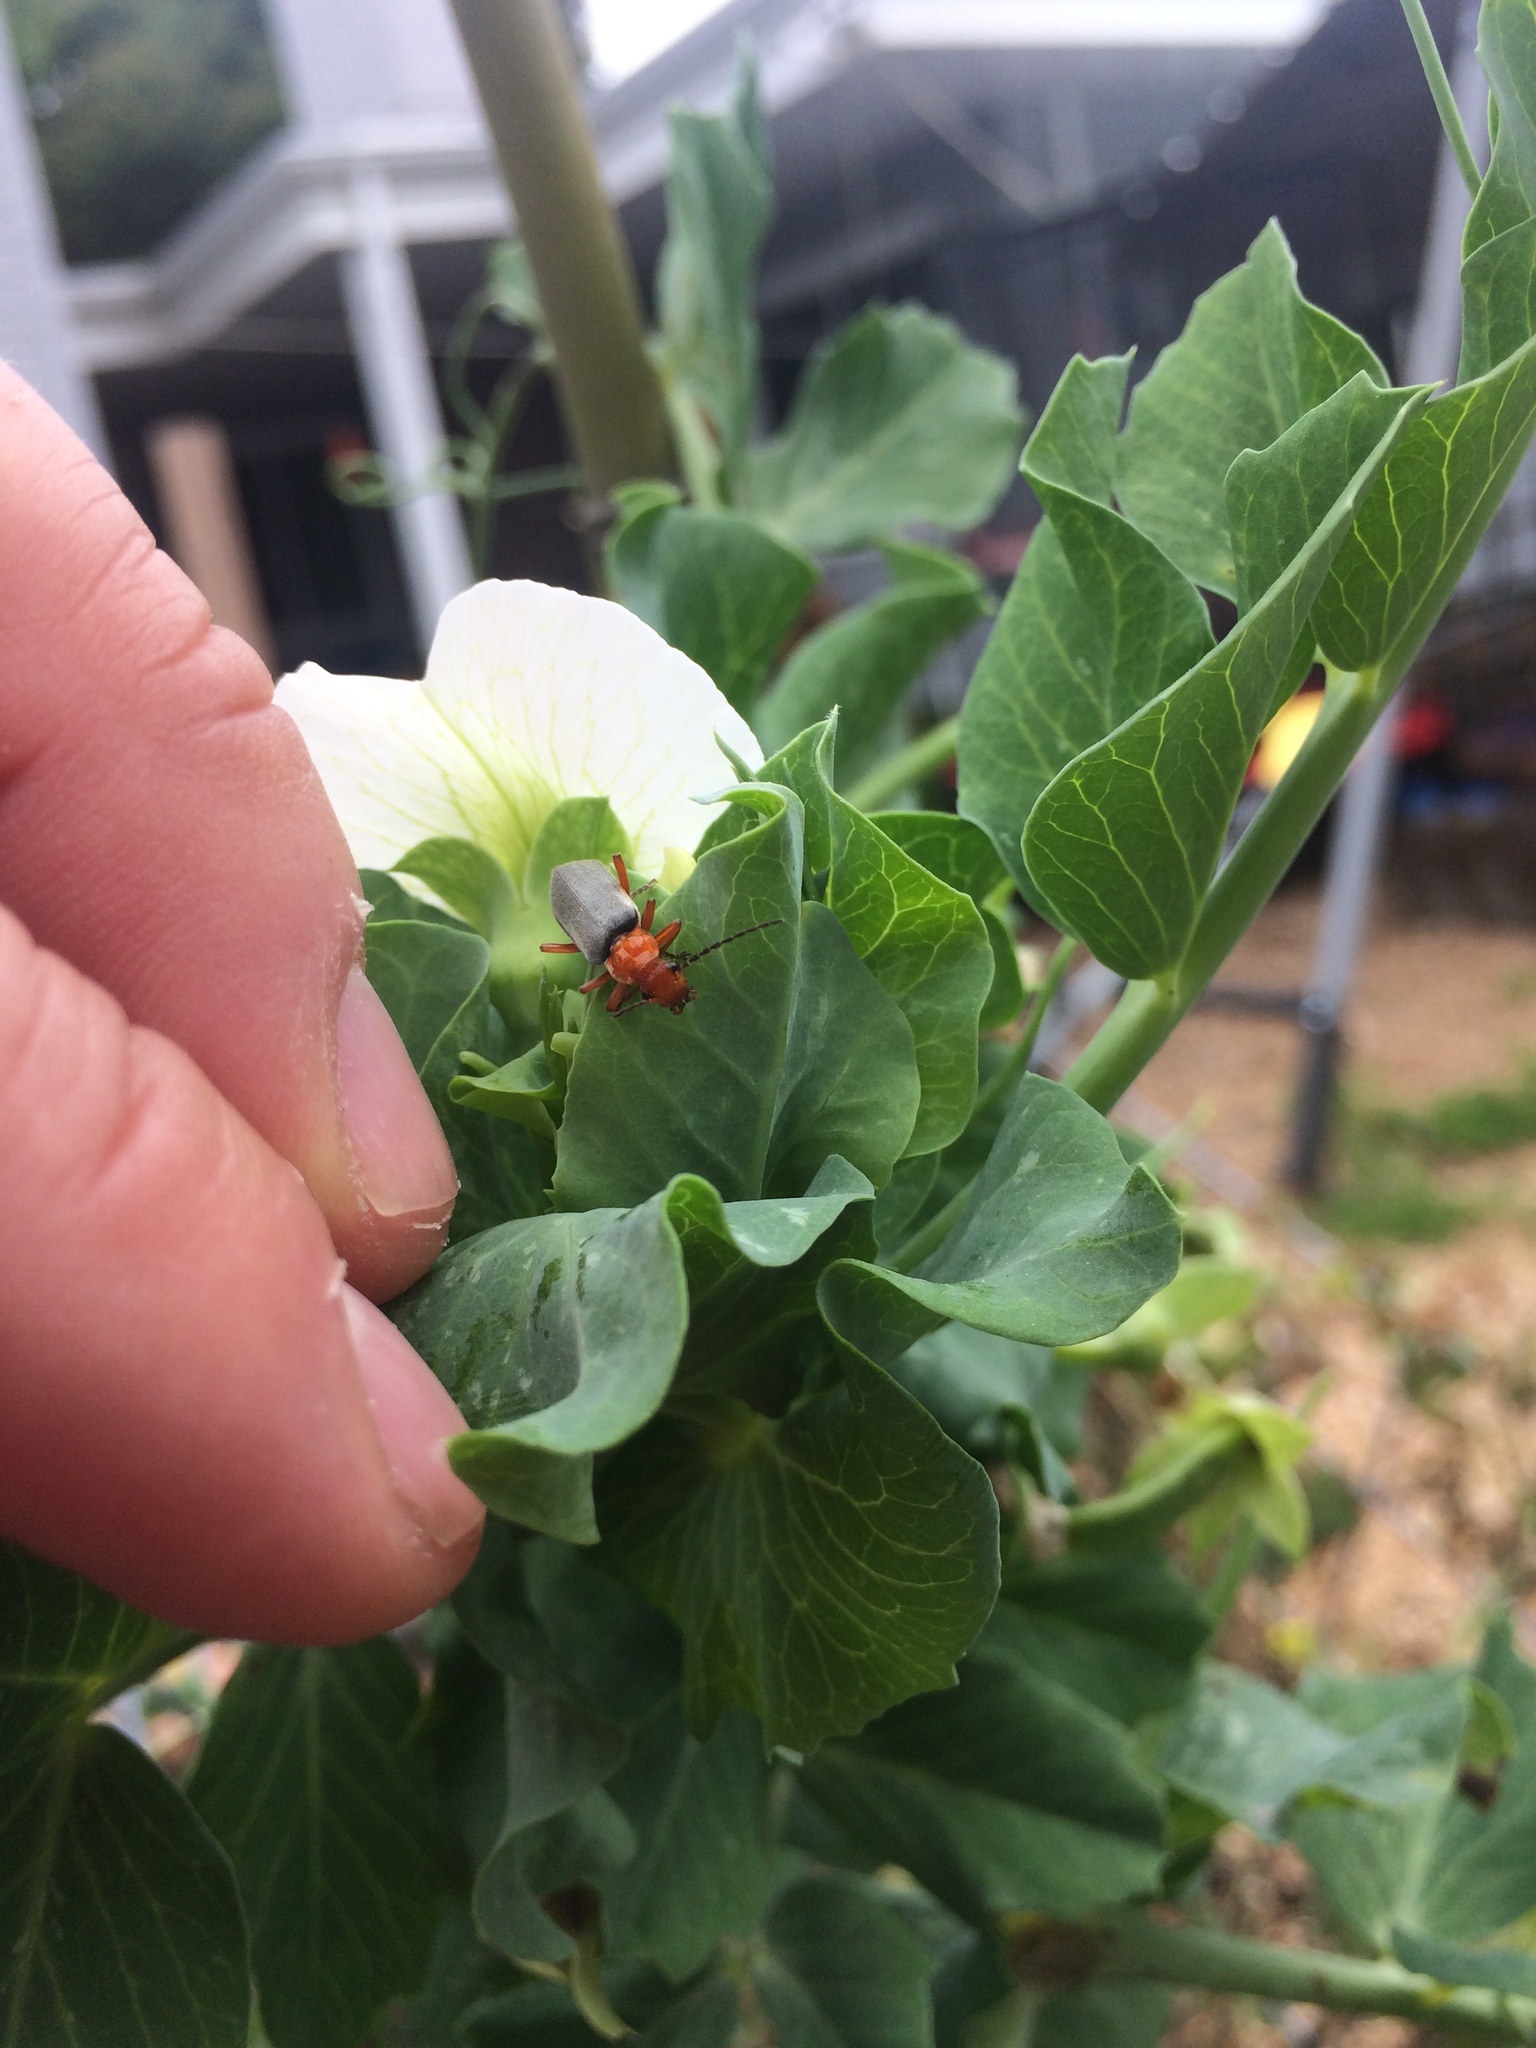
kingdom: Animalia
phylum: Arthropoda
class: Insecta
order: Coleoptera
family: Cantharidae
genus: Podabrus
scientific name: Podabrus pruinosus
